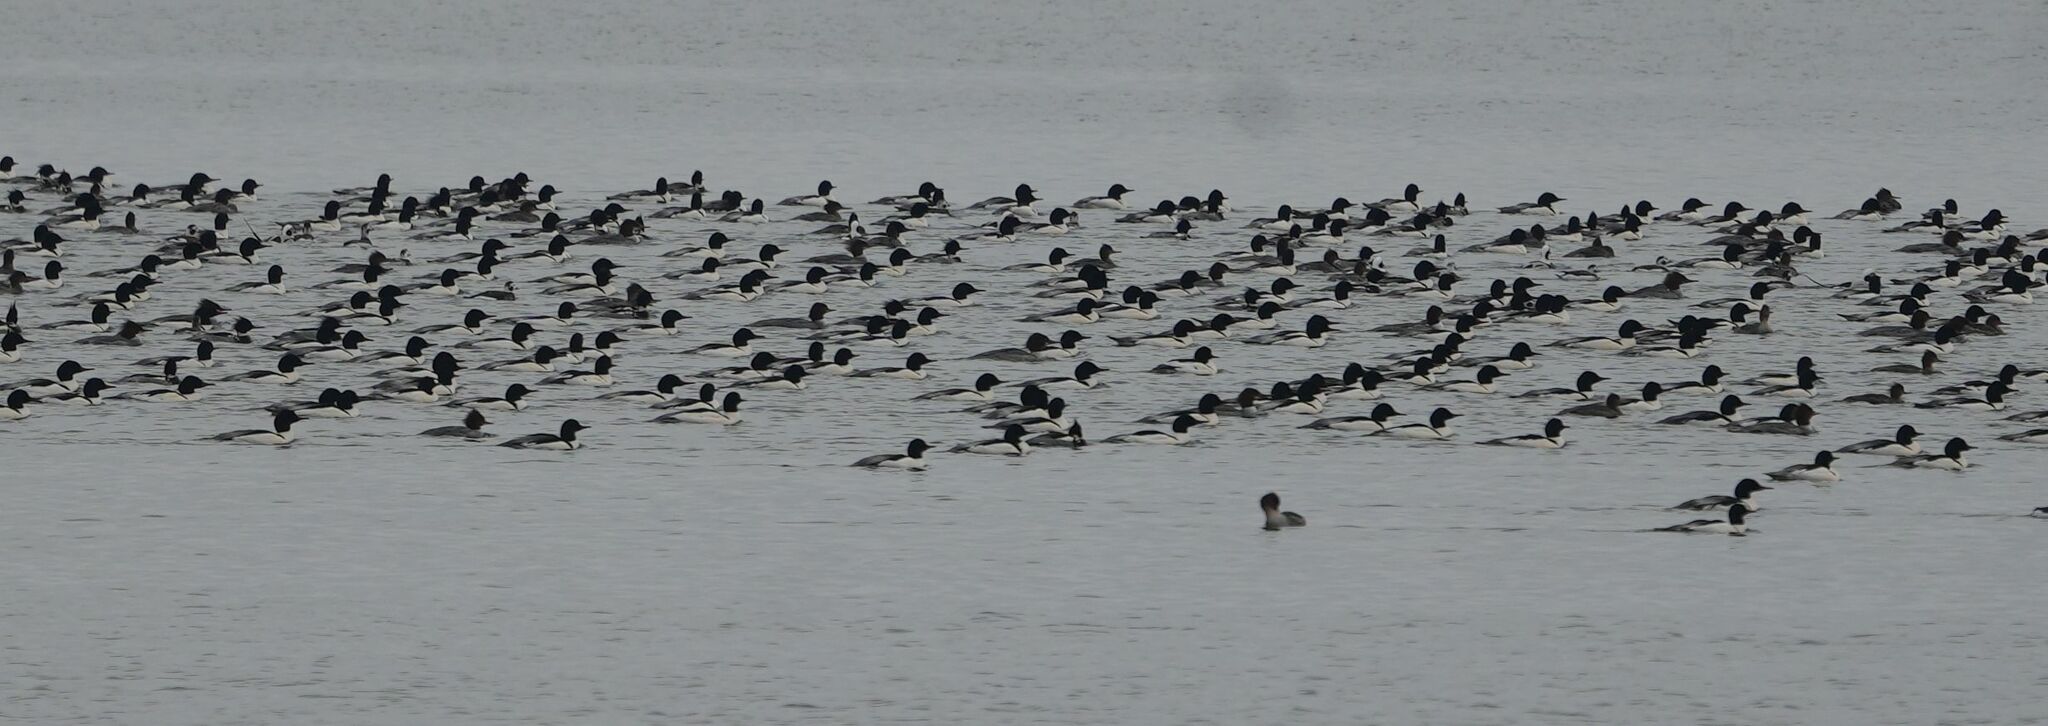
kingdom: Animalia
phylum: Chordata
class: Aves
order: Anseriformes
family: Anatidae
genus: Mergus
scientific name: Mergus merganser
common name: Common merganser
